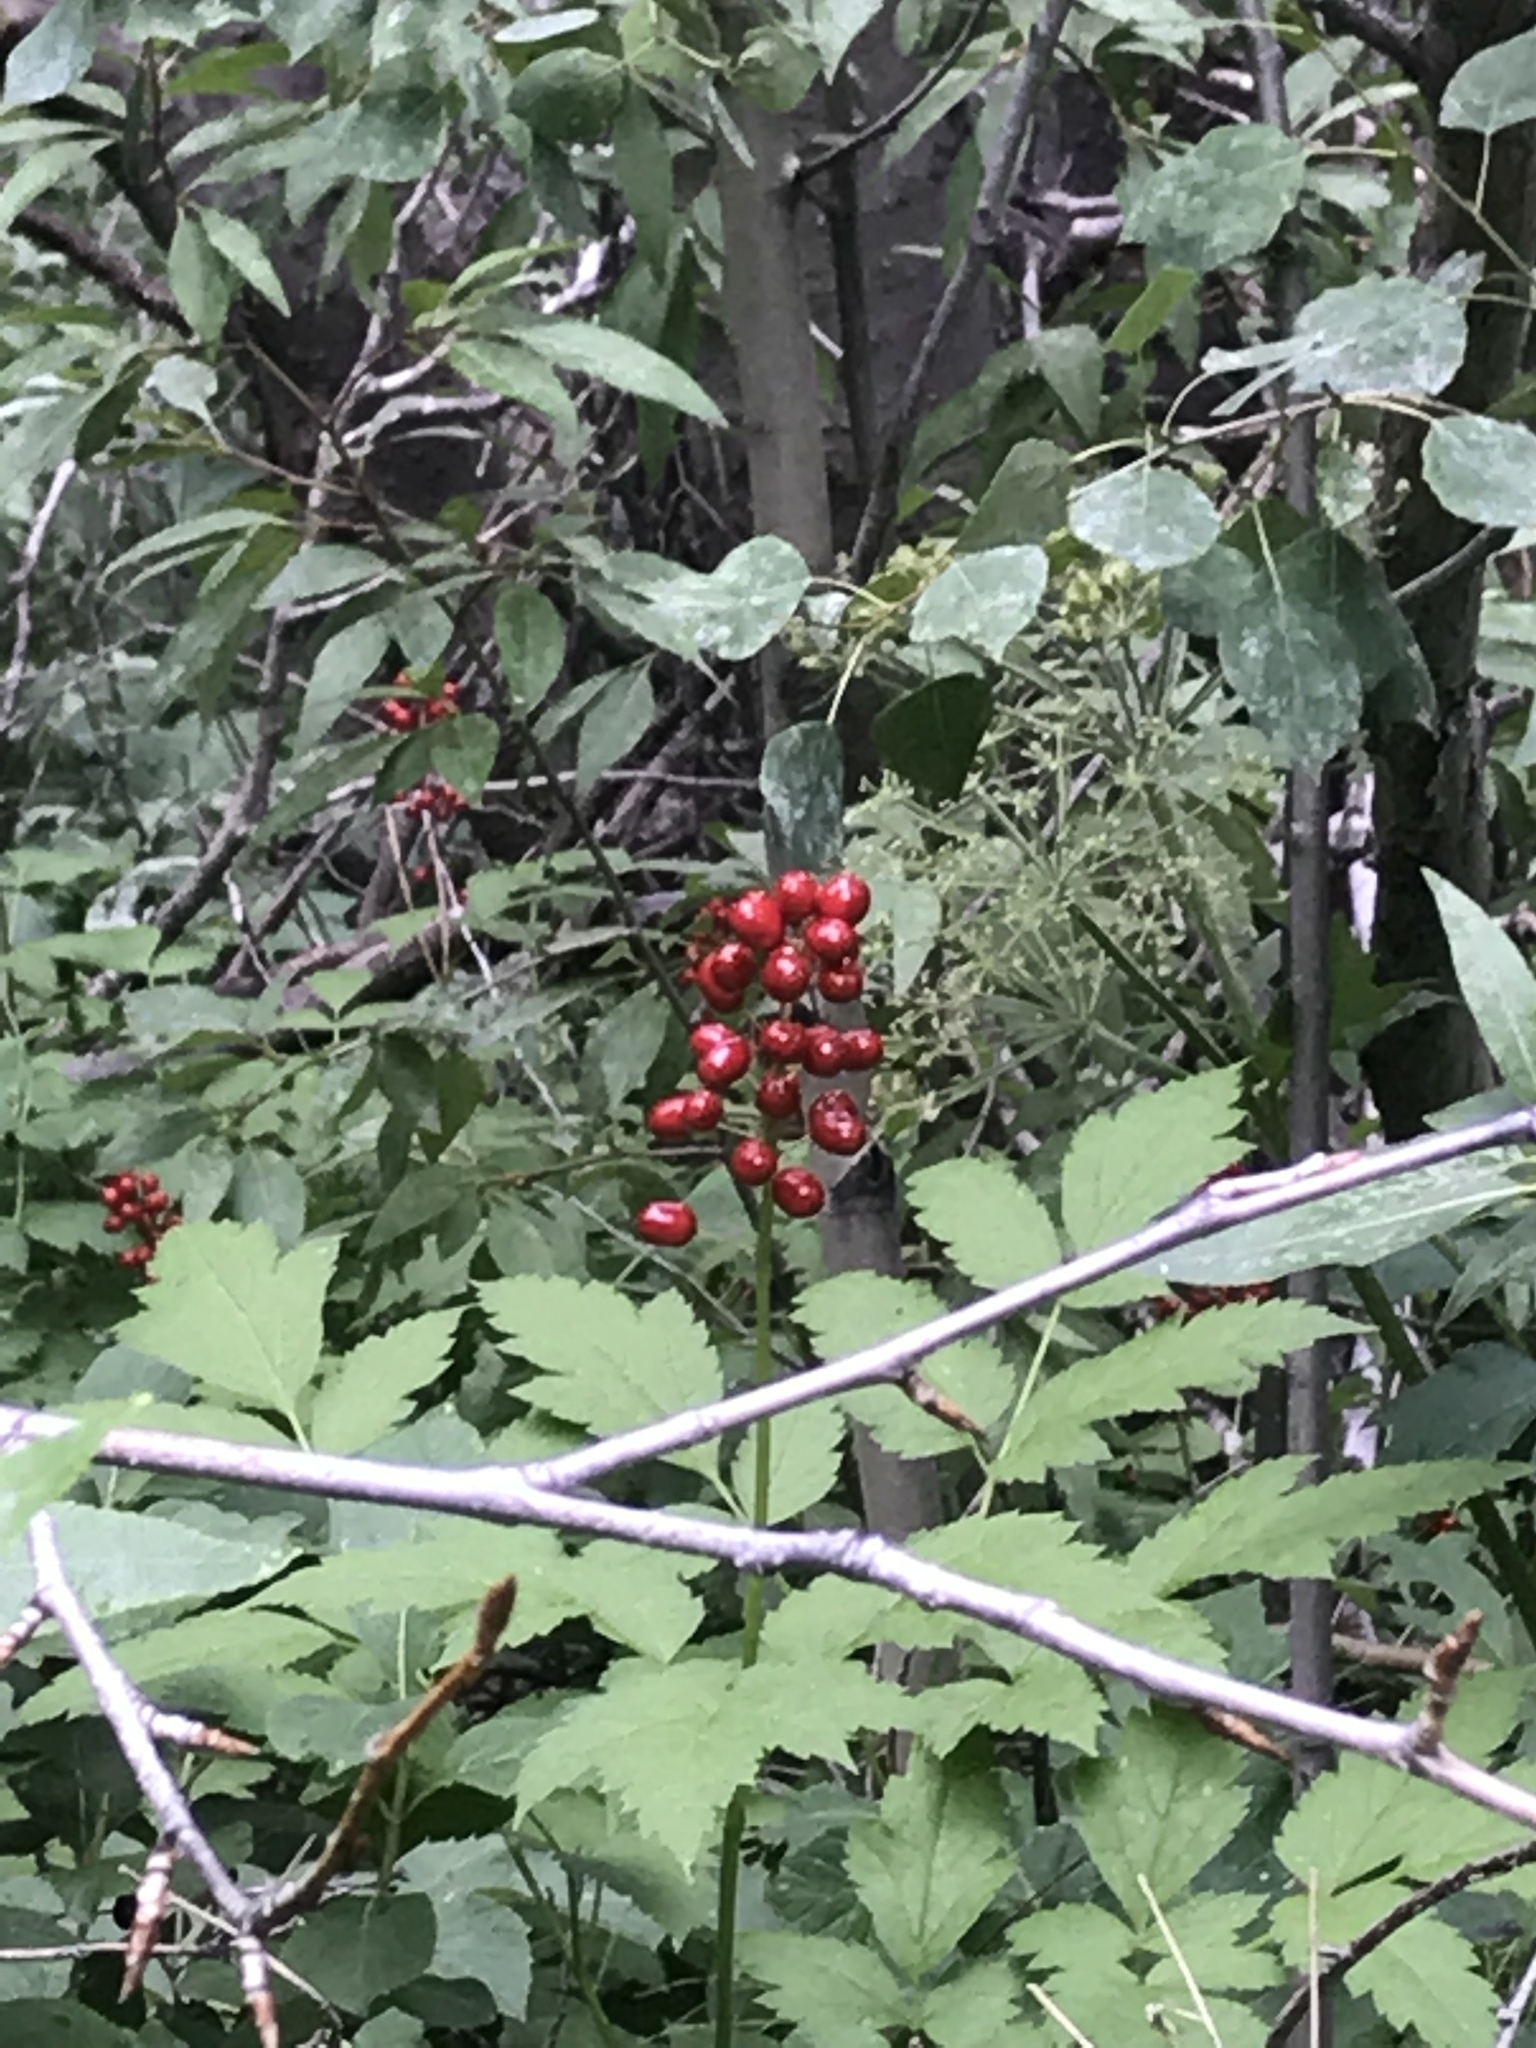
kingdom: Plantae
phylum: Tracheophyta
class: Magnoliopsida
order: Ranunculales
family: Ranunculaceae
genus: Actaea
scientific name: Actaea rubra
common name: Red baneberry
